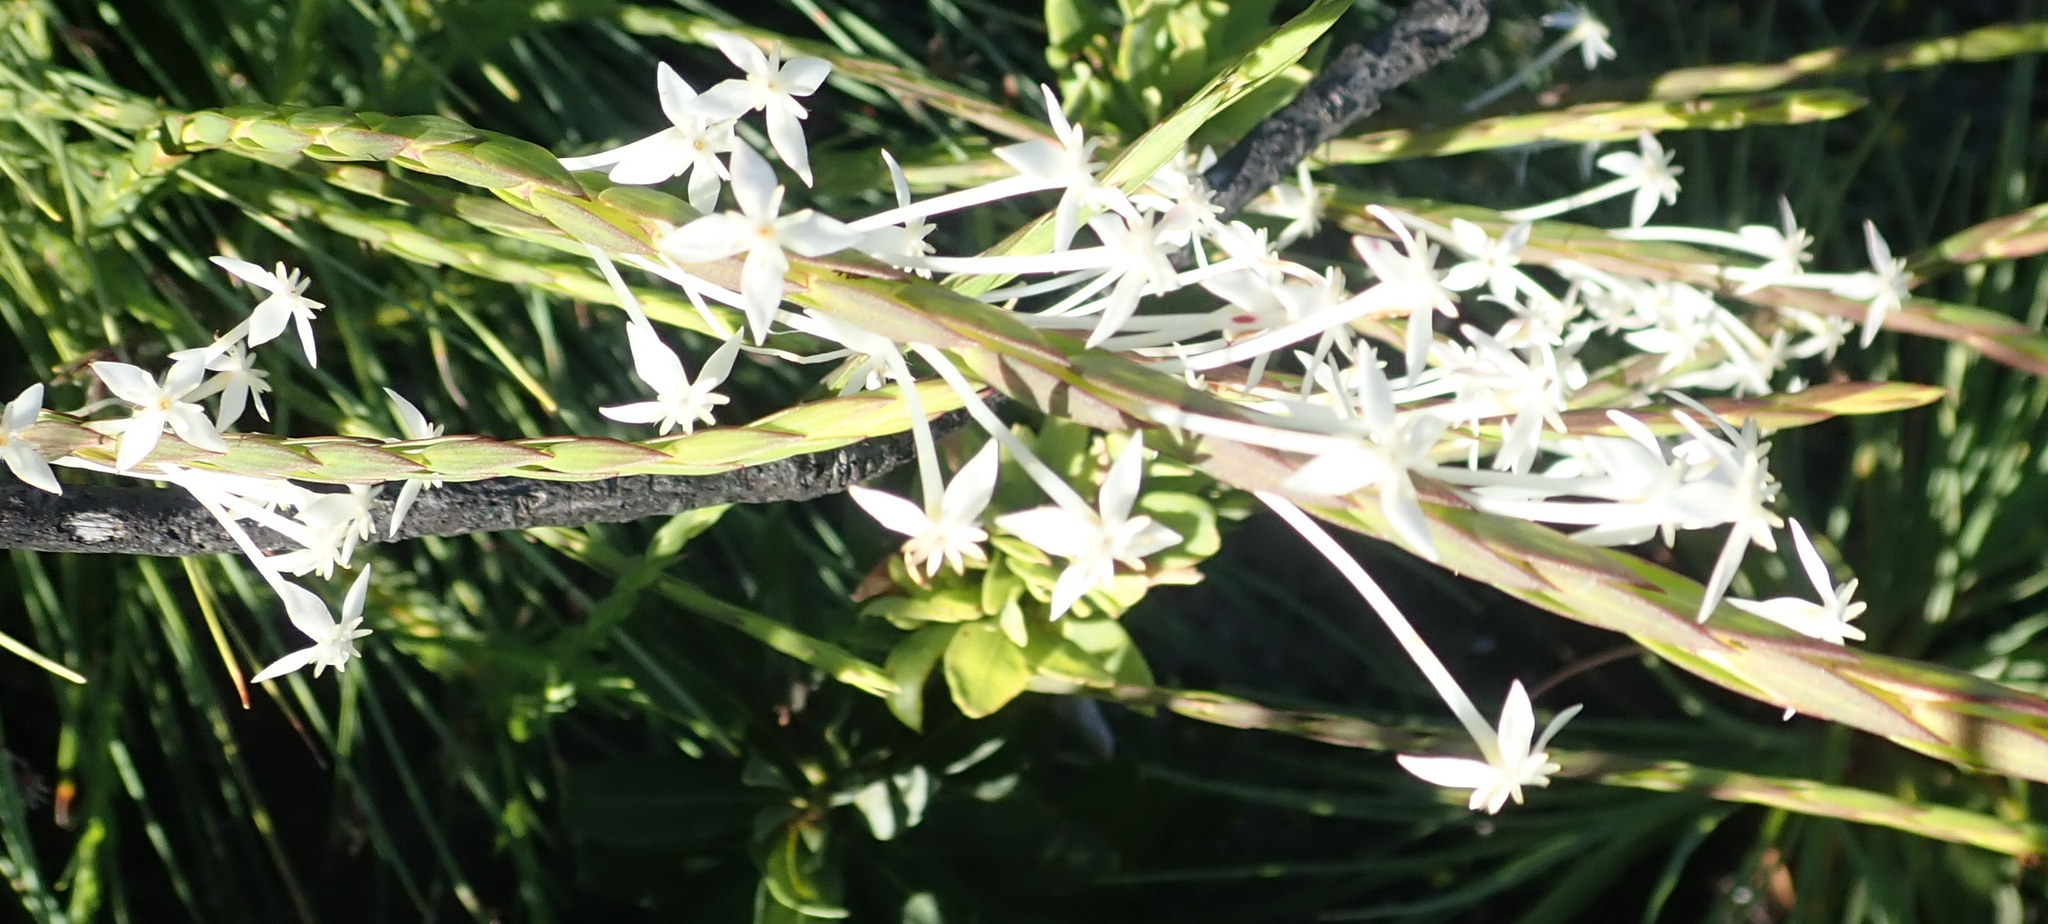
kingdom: Plantae
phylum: Tracheophyta
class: Magnoliopsida
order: Malvales
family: Thymelaeaceae
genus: Struthiola
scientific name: Struthiola myrsinites
